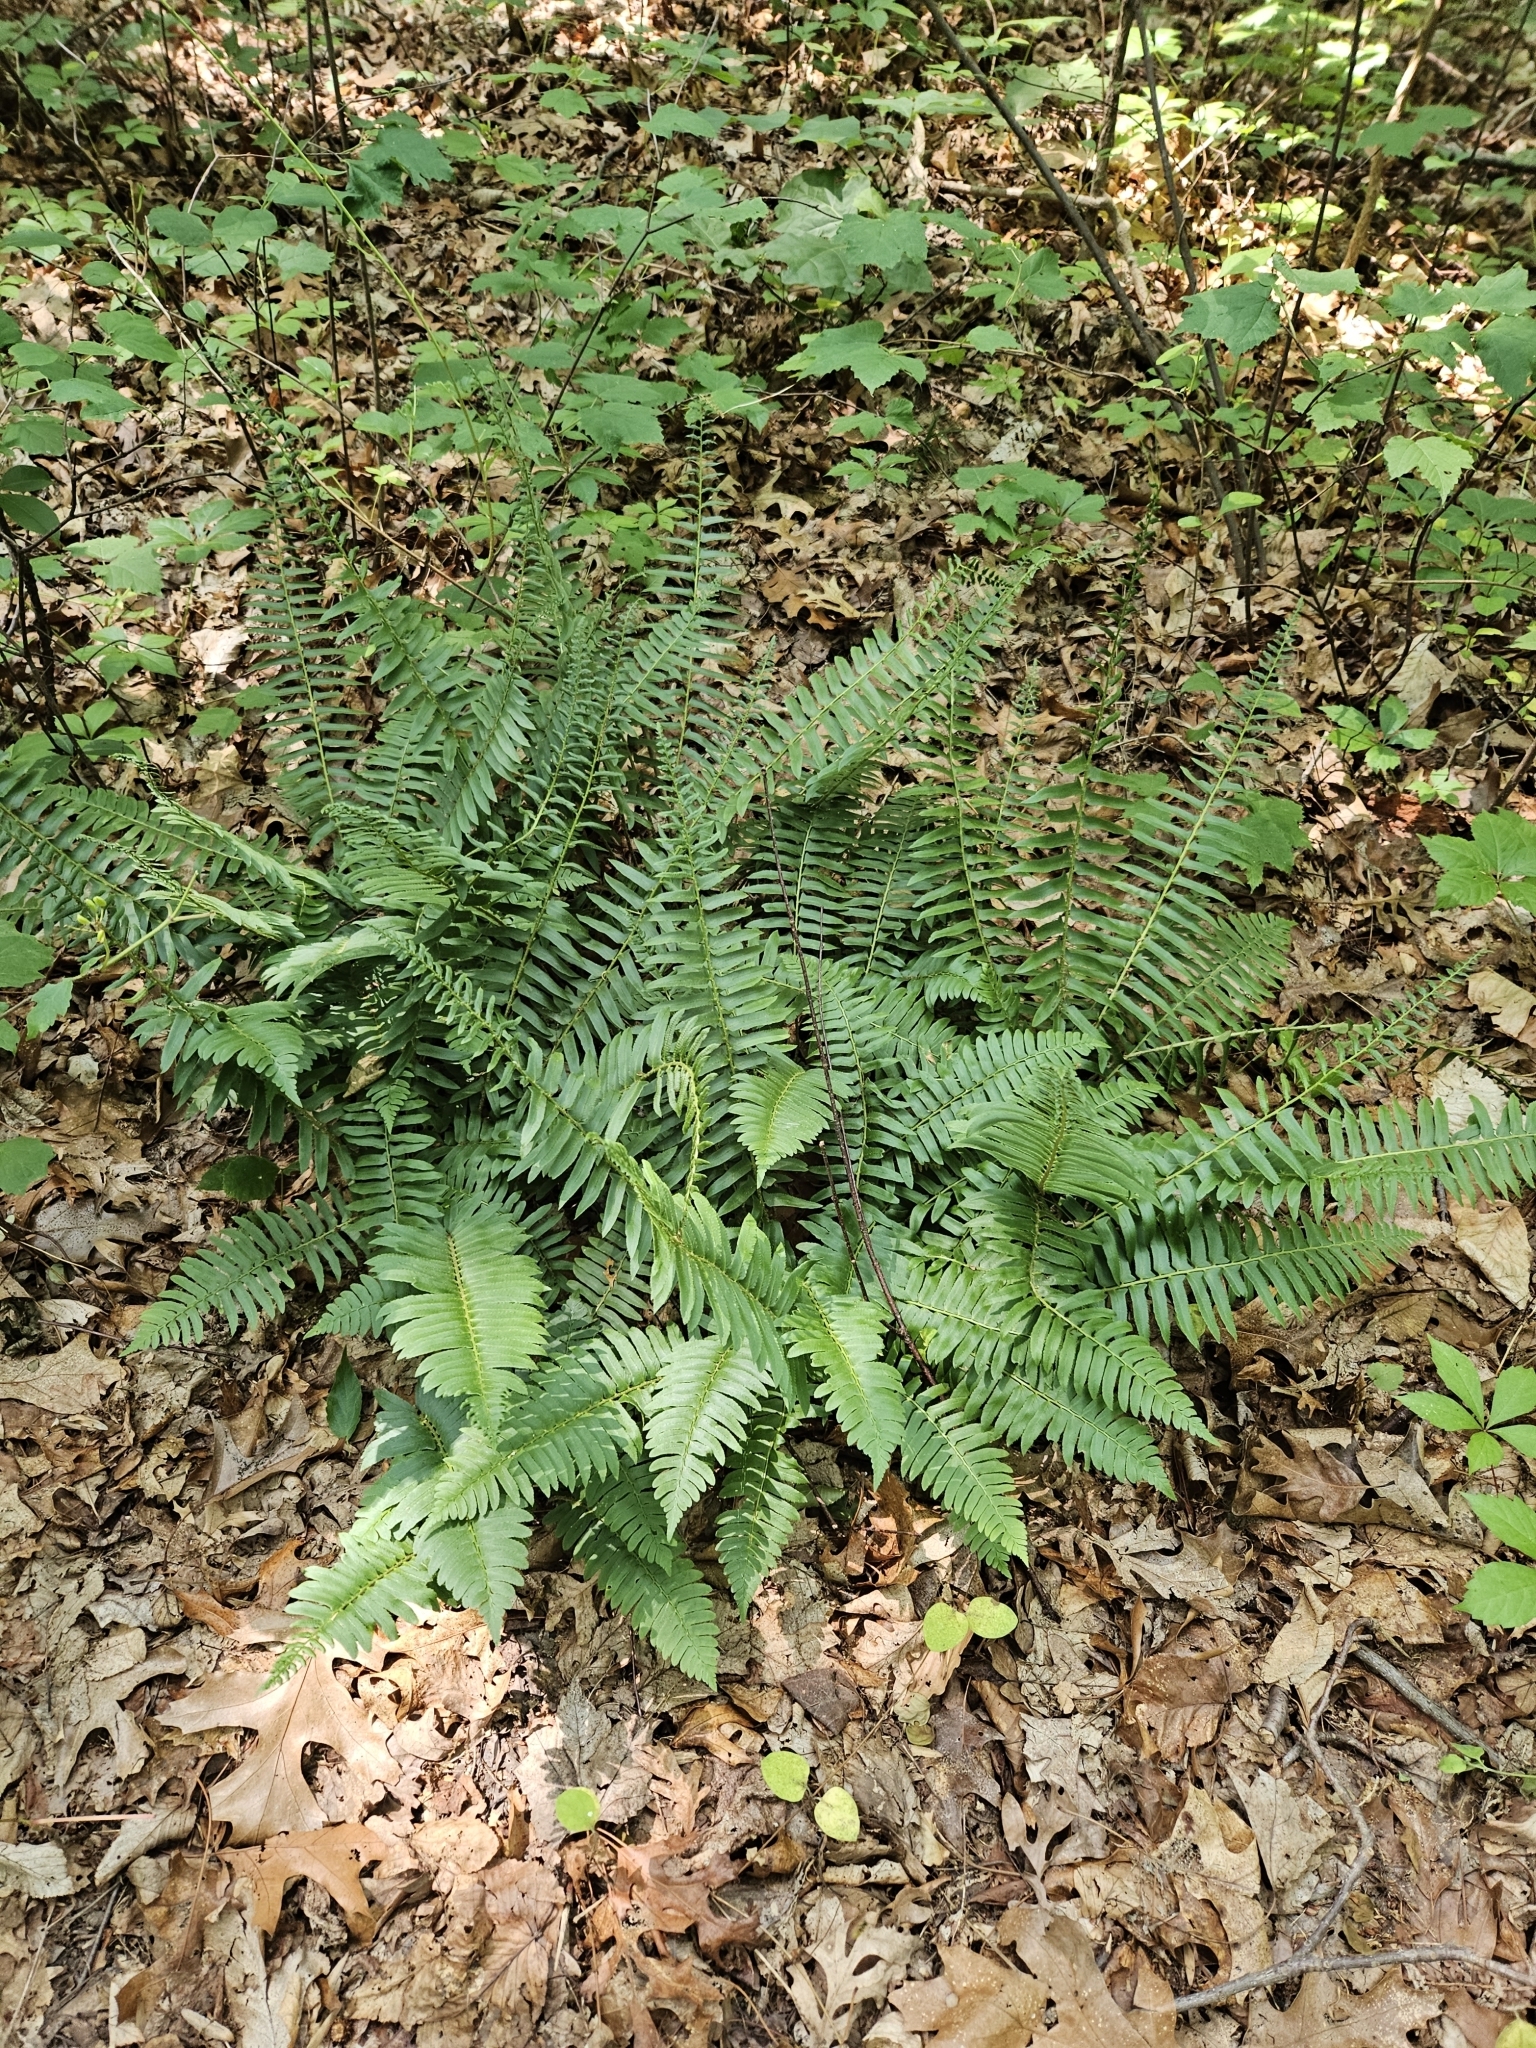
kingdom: Plantae
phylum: Tracheophyta
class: Polypodiopsida
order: Polypodiales
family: Dryopteridaceae
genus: Polystichum
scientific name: Polystichum acrostichoides
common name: Christmas fern
